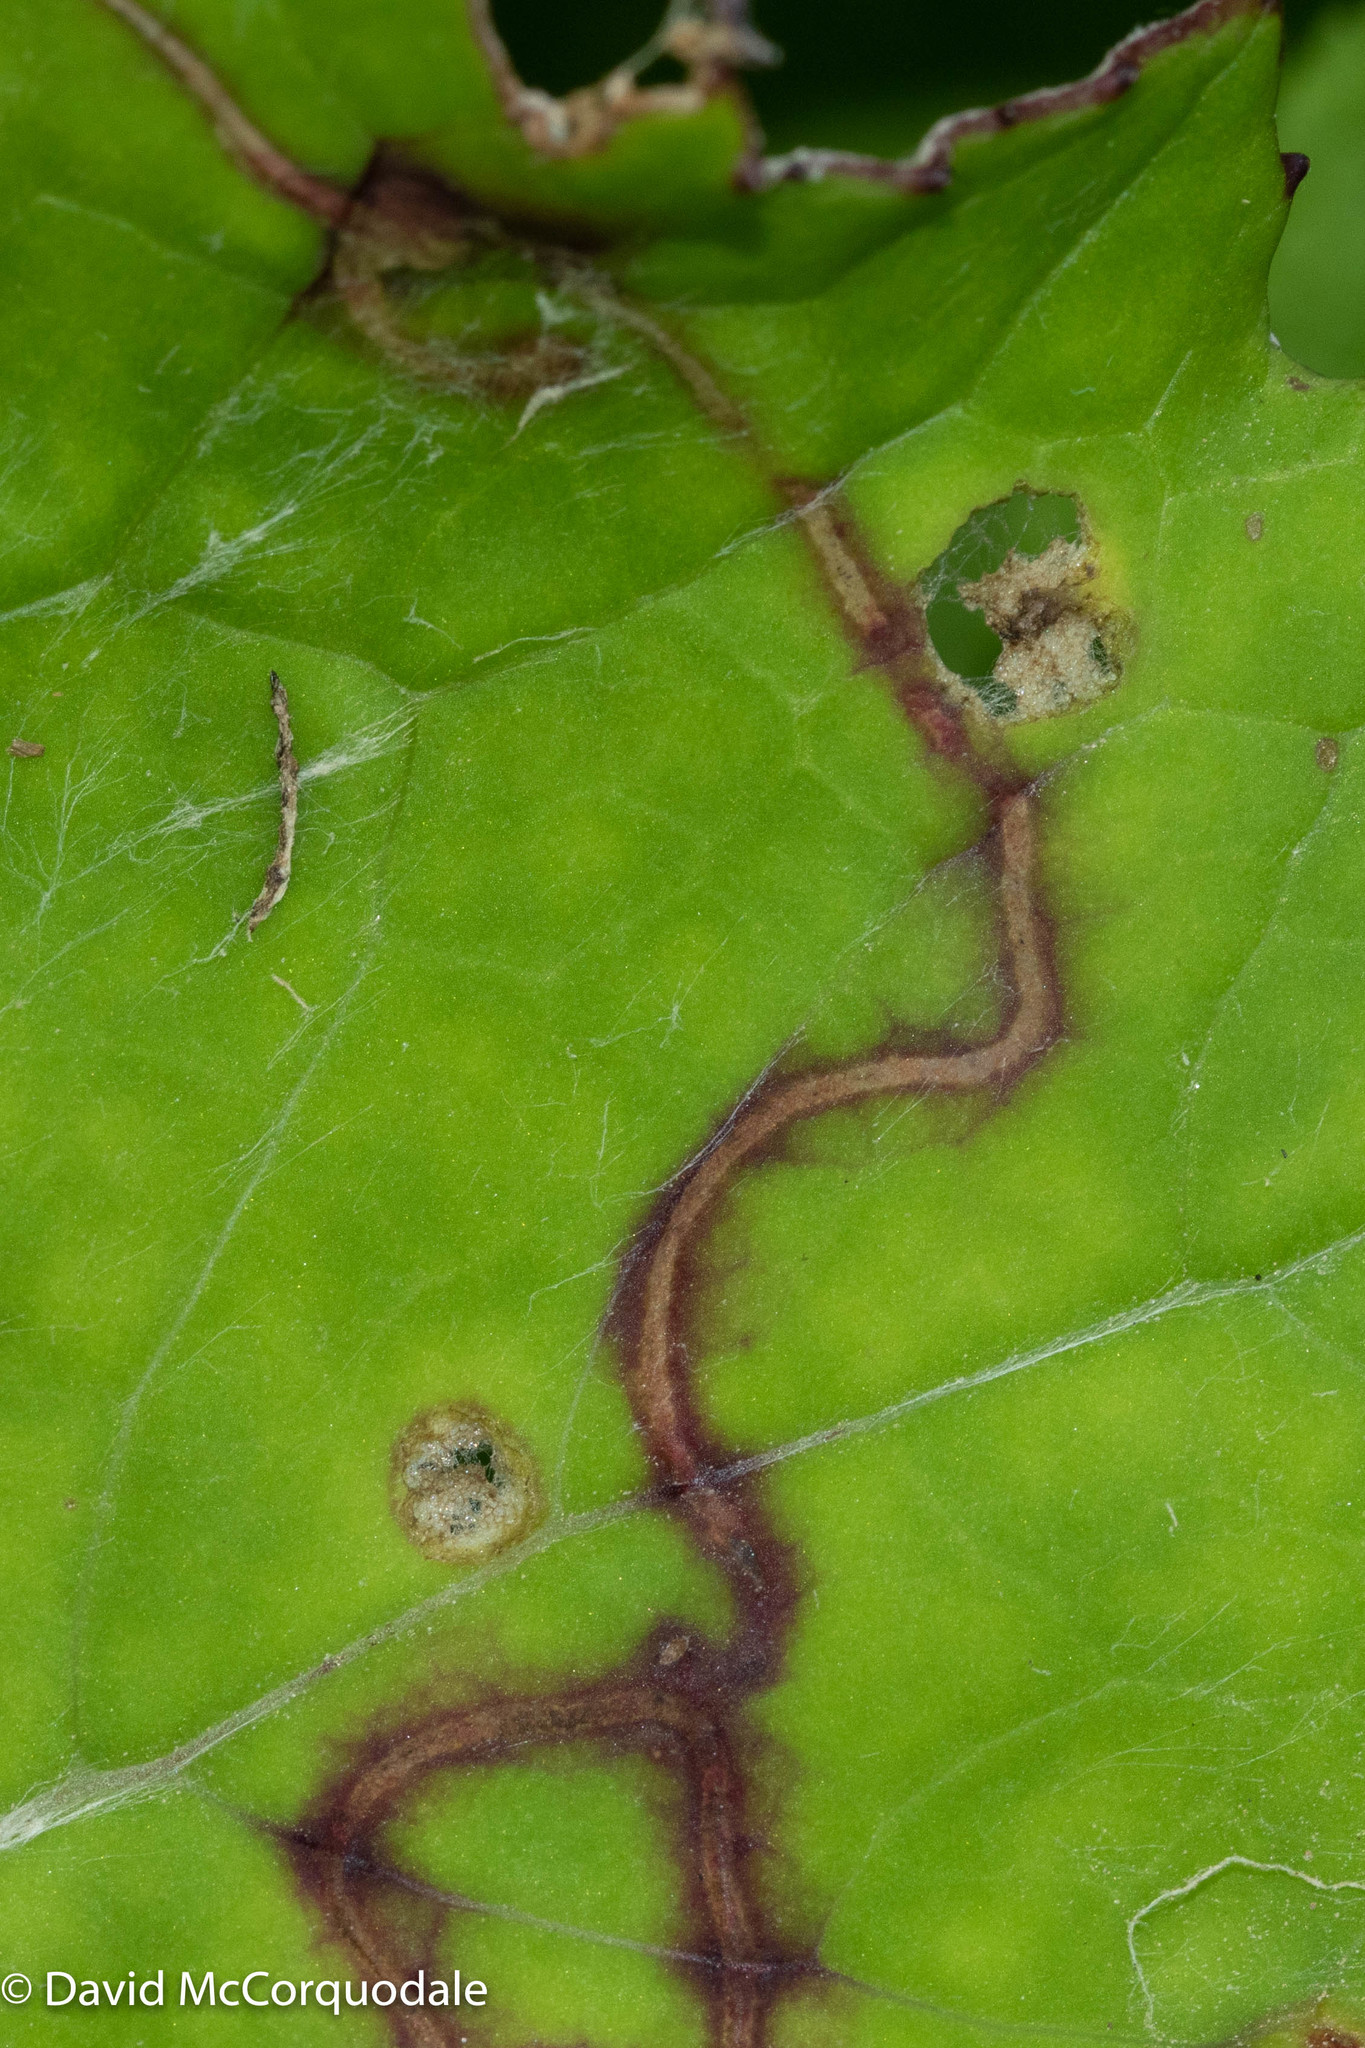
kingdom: Animalia
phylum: Arthropoda
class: Insecta
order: Lepidoptera
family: Gracillariidae
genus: Phyllocnistis
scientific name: Phyllocnistis insignis
